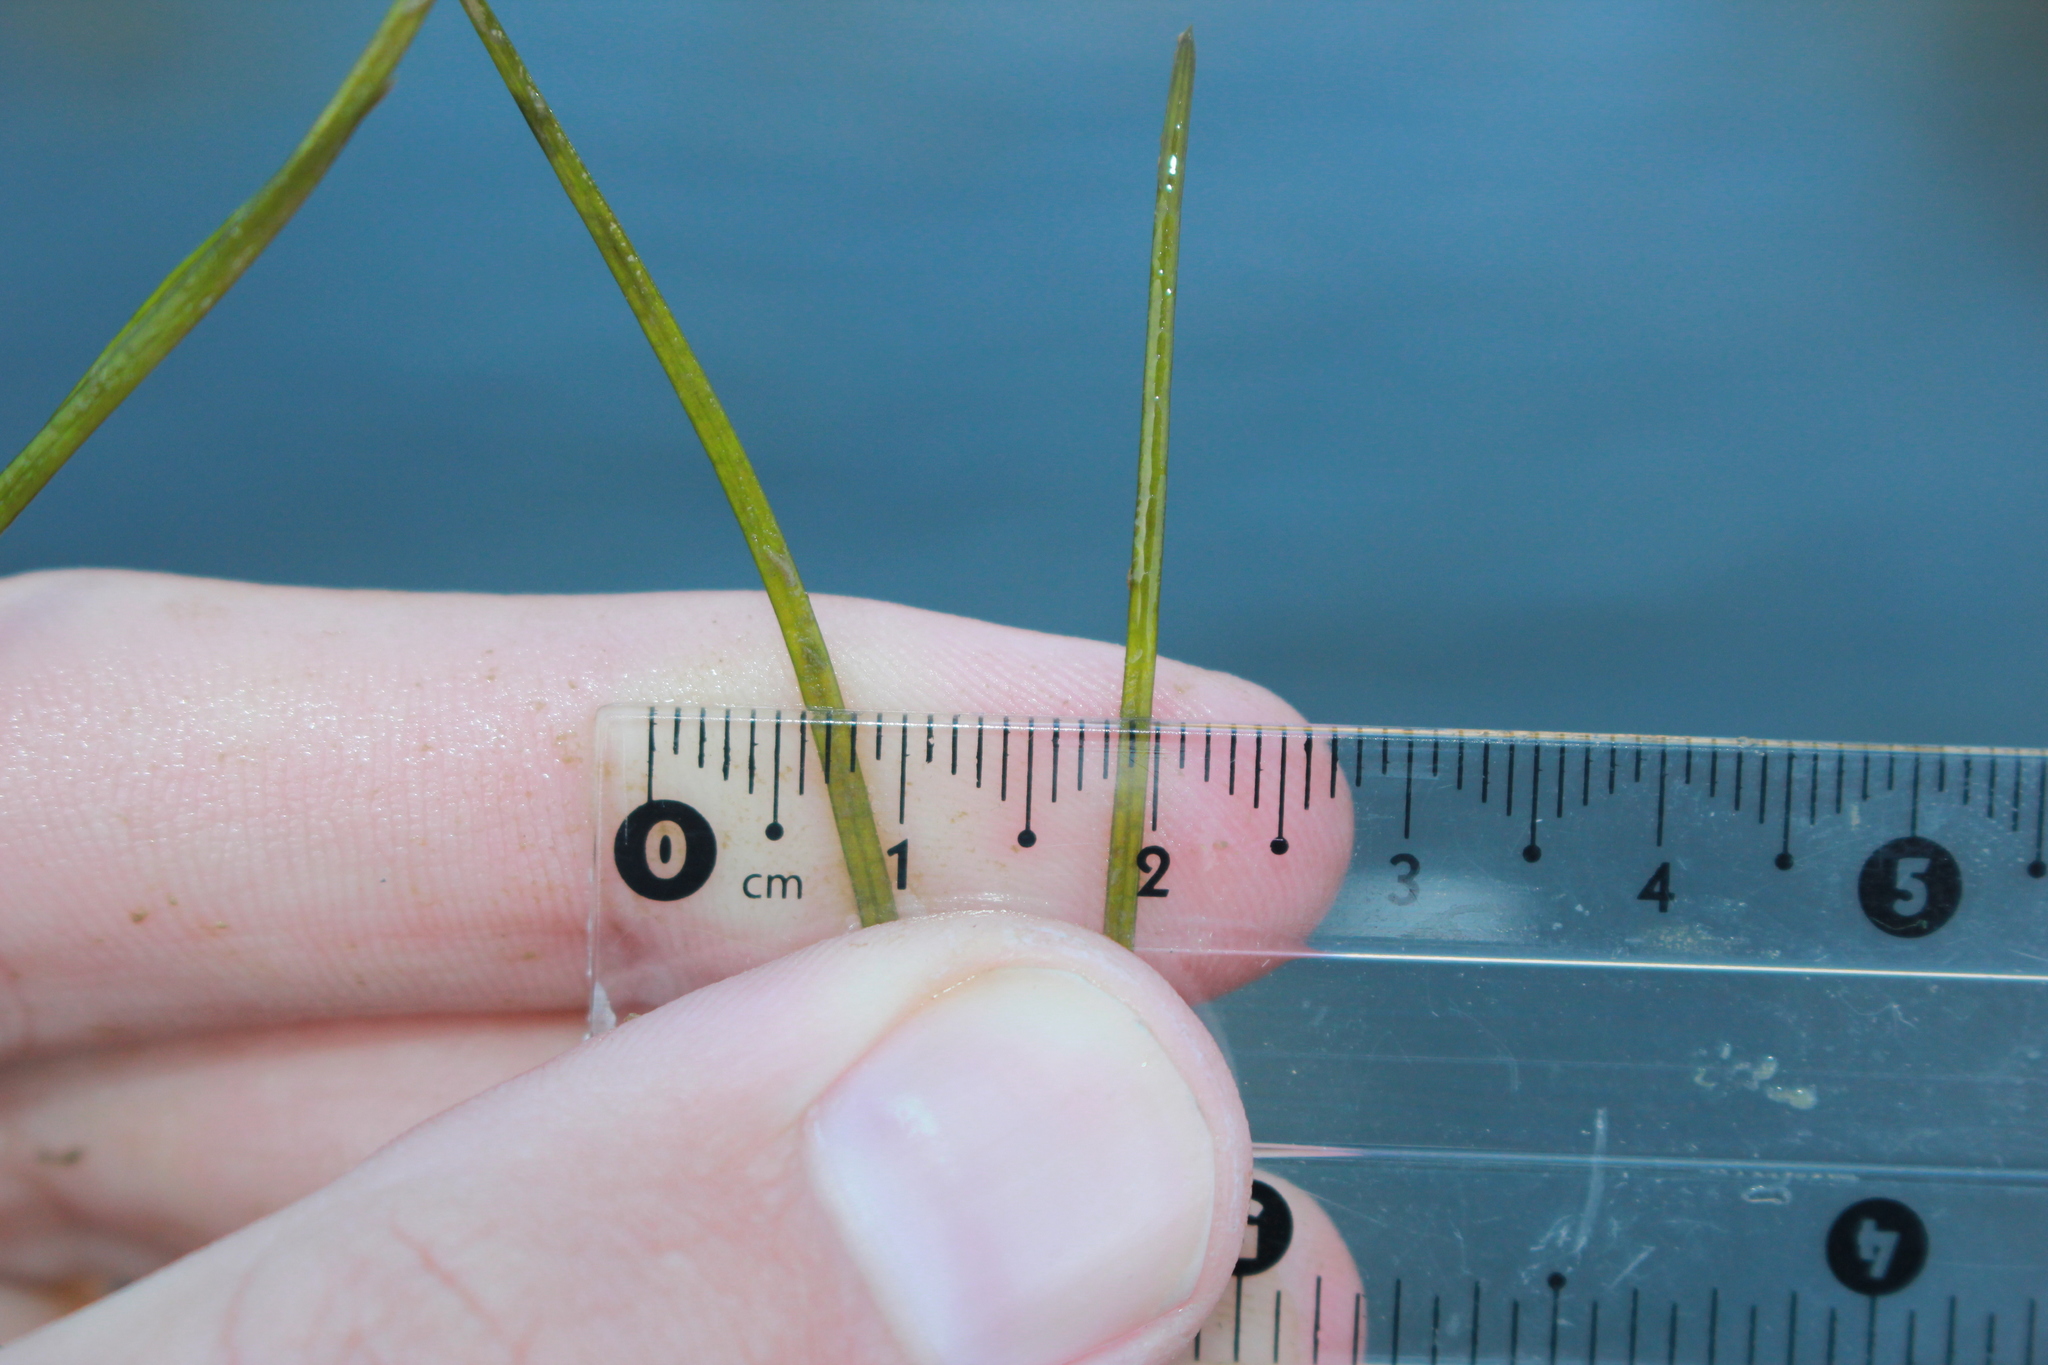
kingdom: Plantae
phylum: Tracheophyta
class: Liliopsida
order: Alismatales
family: Potamogetonaceae
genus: Stuckenia
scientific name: Stuckenia pectinata
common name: Sago pondweed
